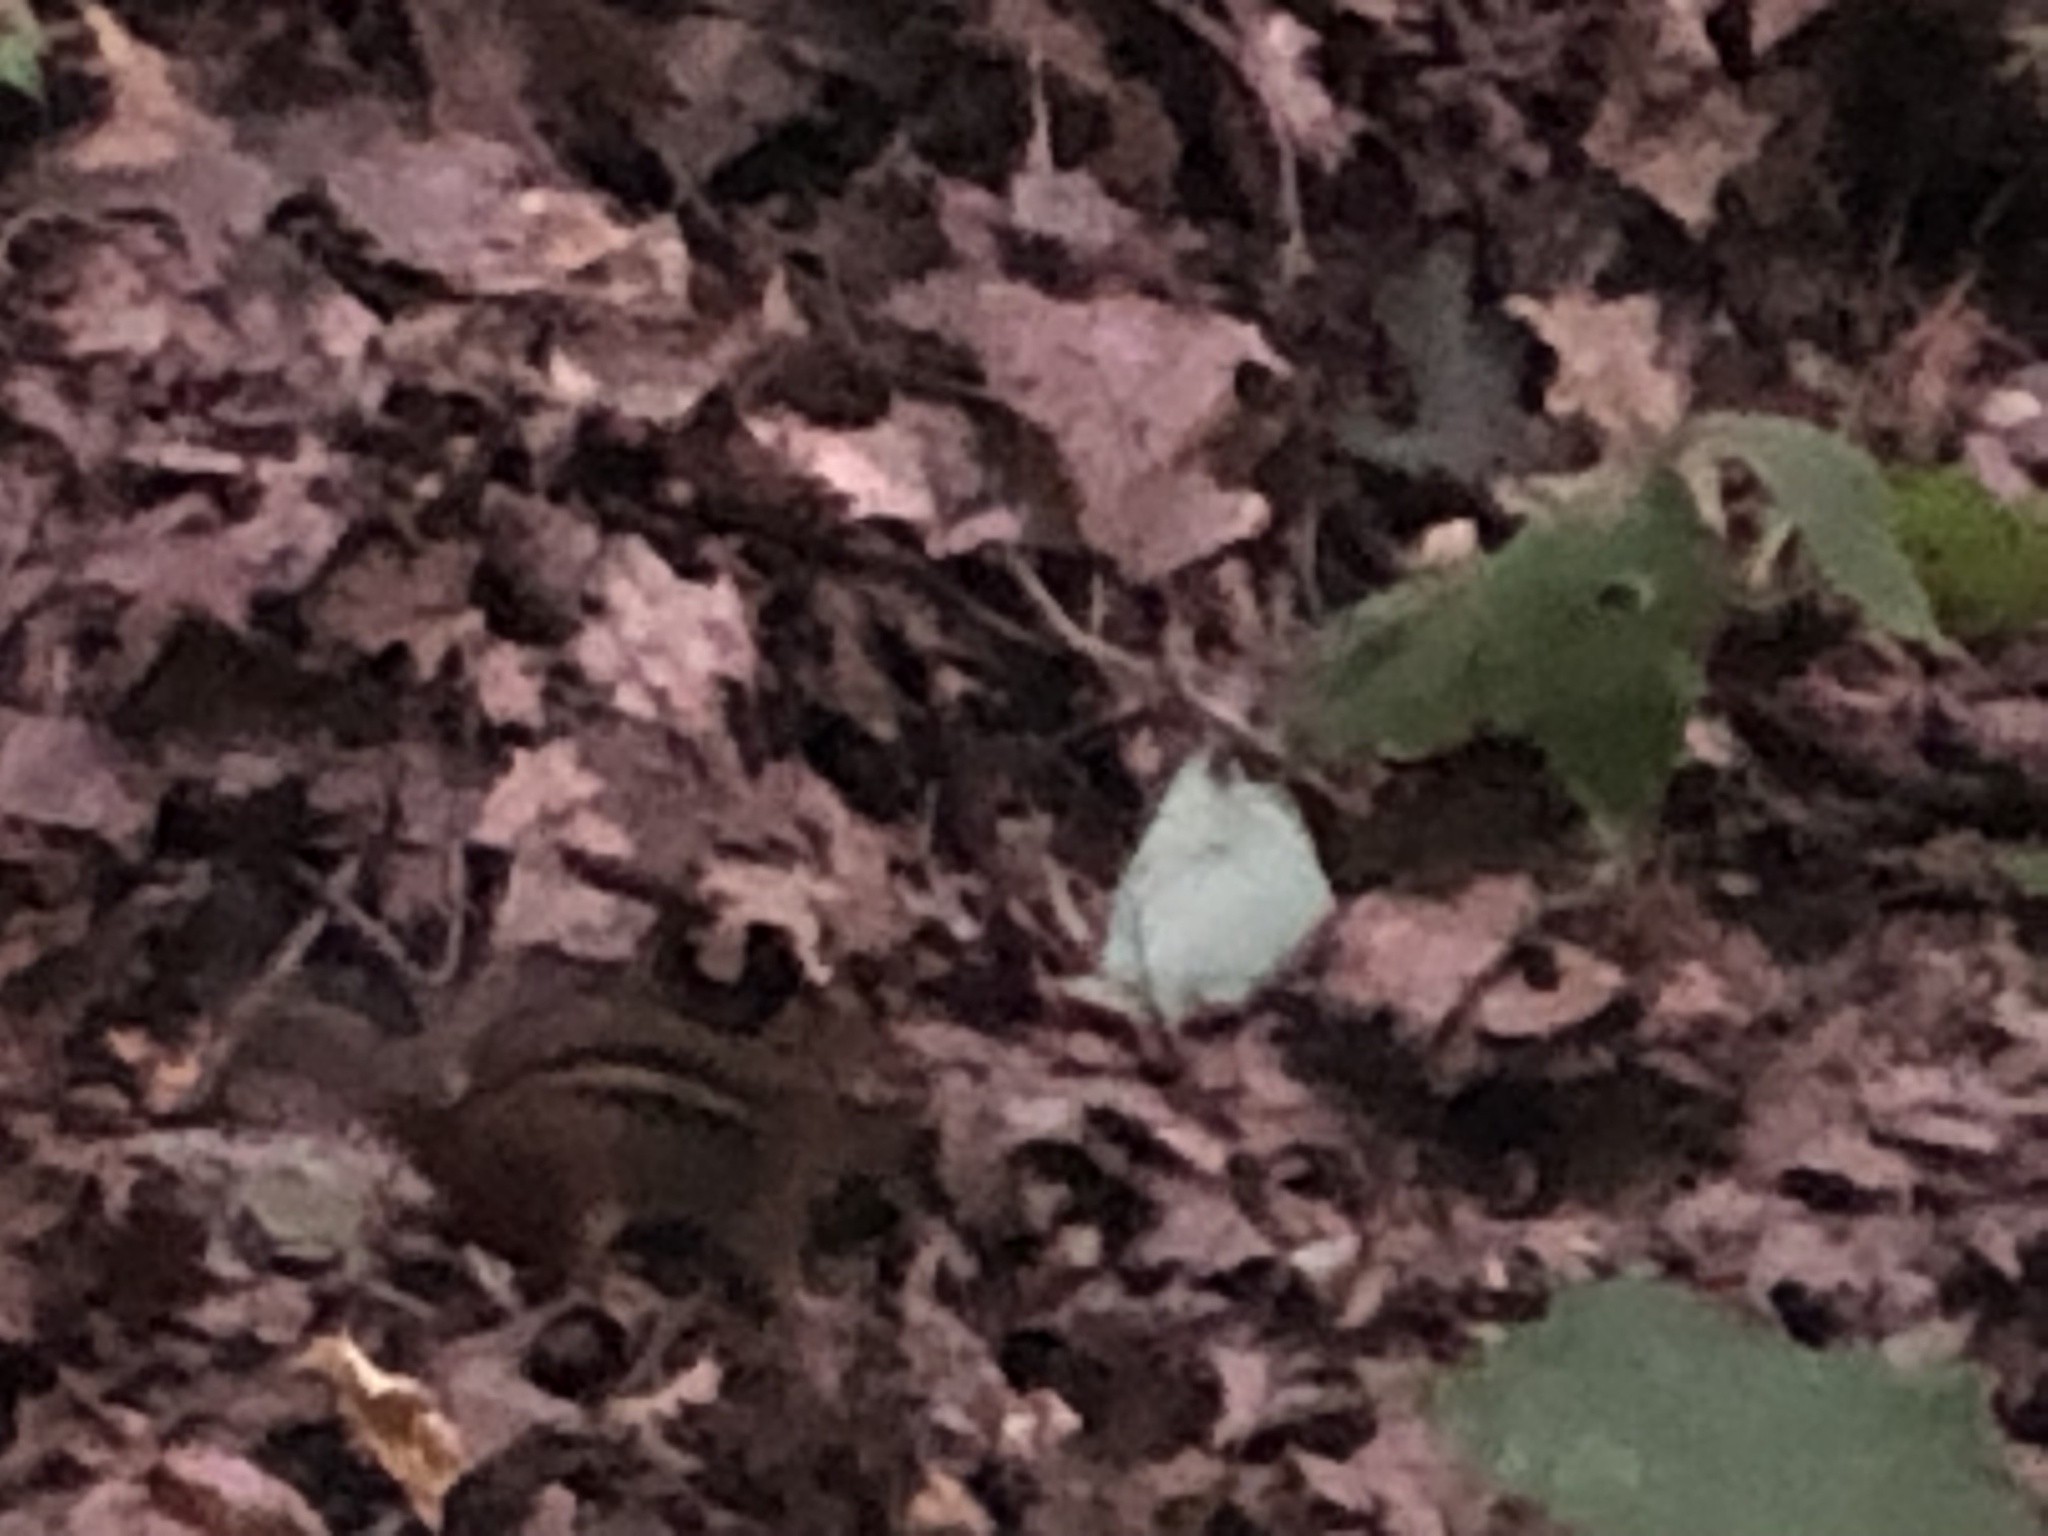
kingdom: Animalia
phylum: Chordata
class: Mammalia
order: Rodentia
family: Sciuridae
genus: Tamias
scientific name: Tamias striatus
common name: Eastern chipmunk
